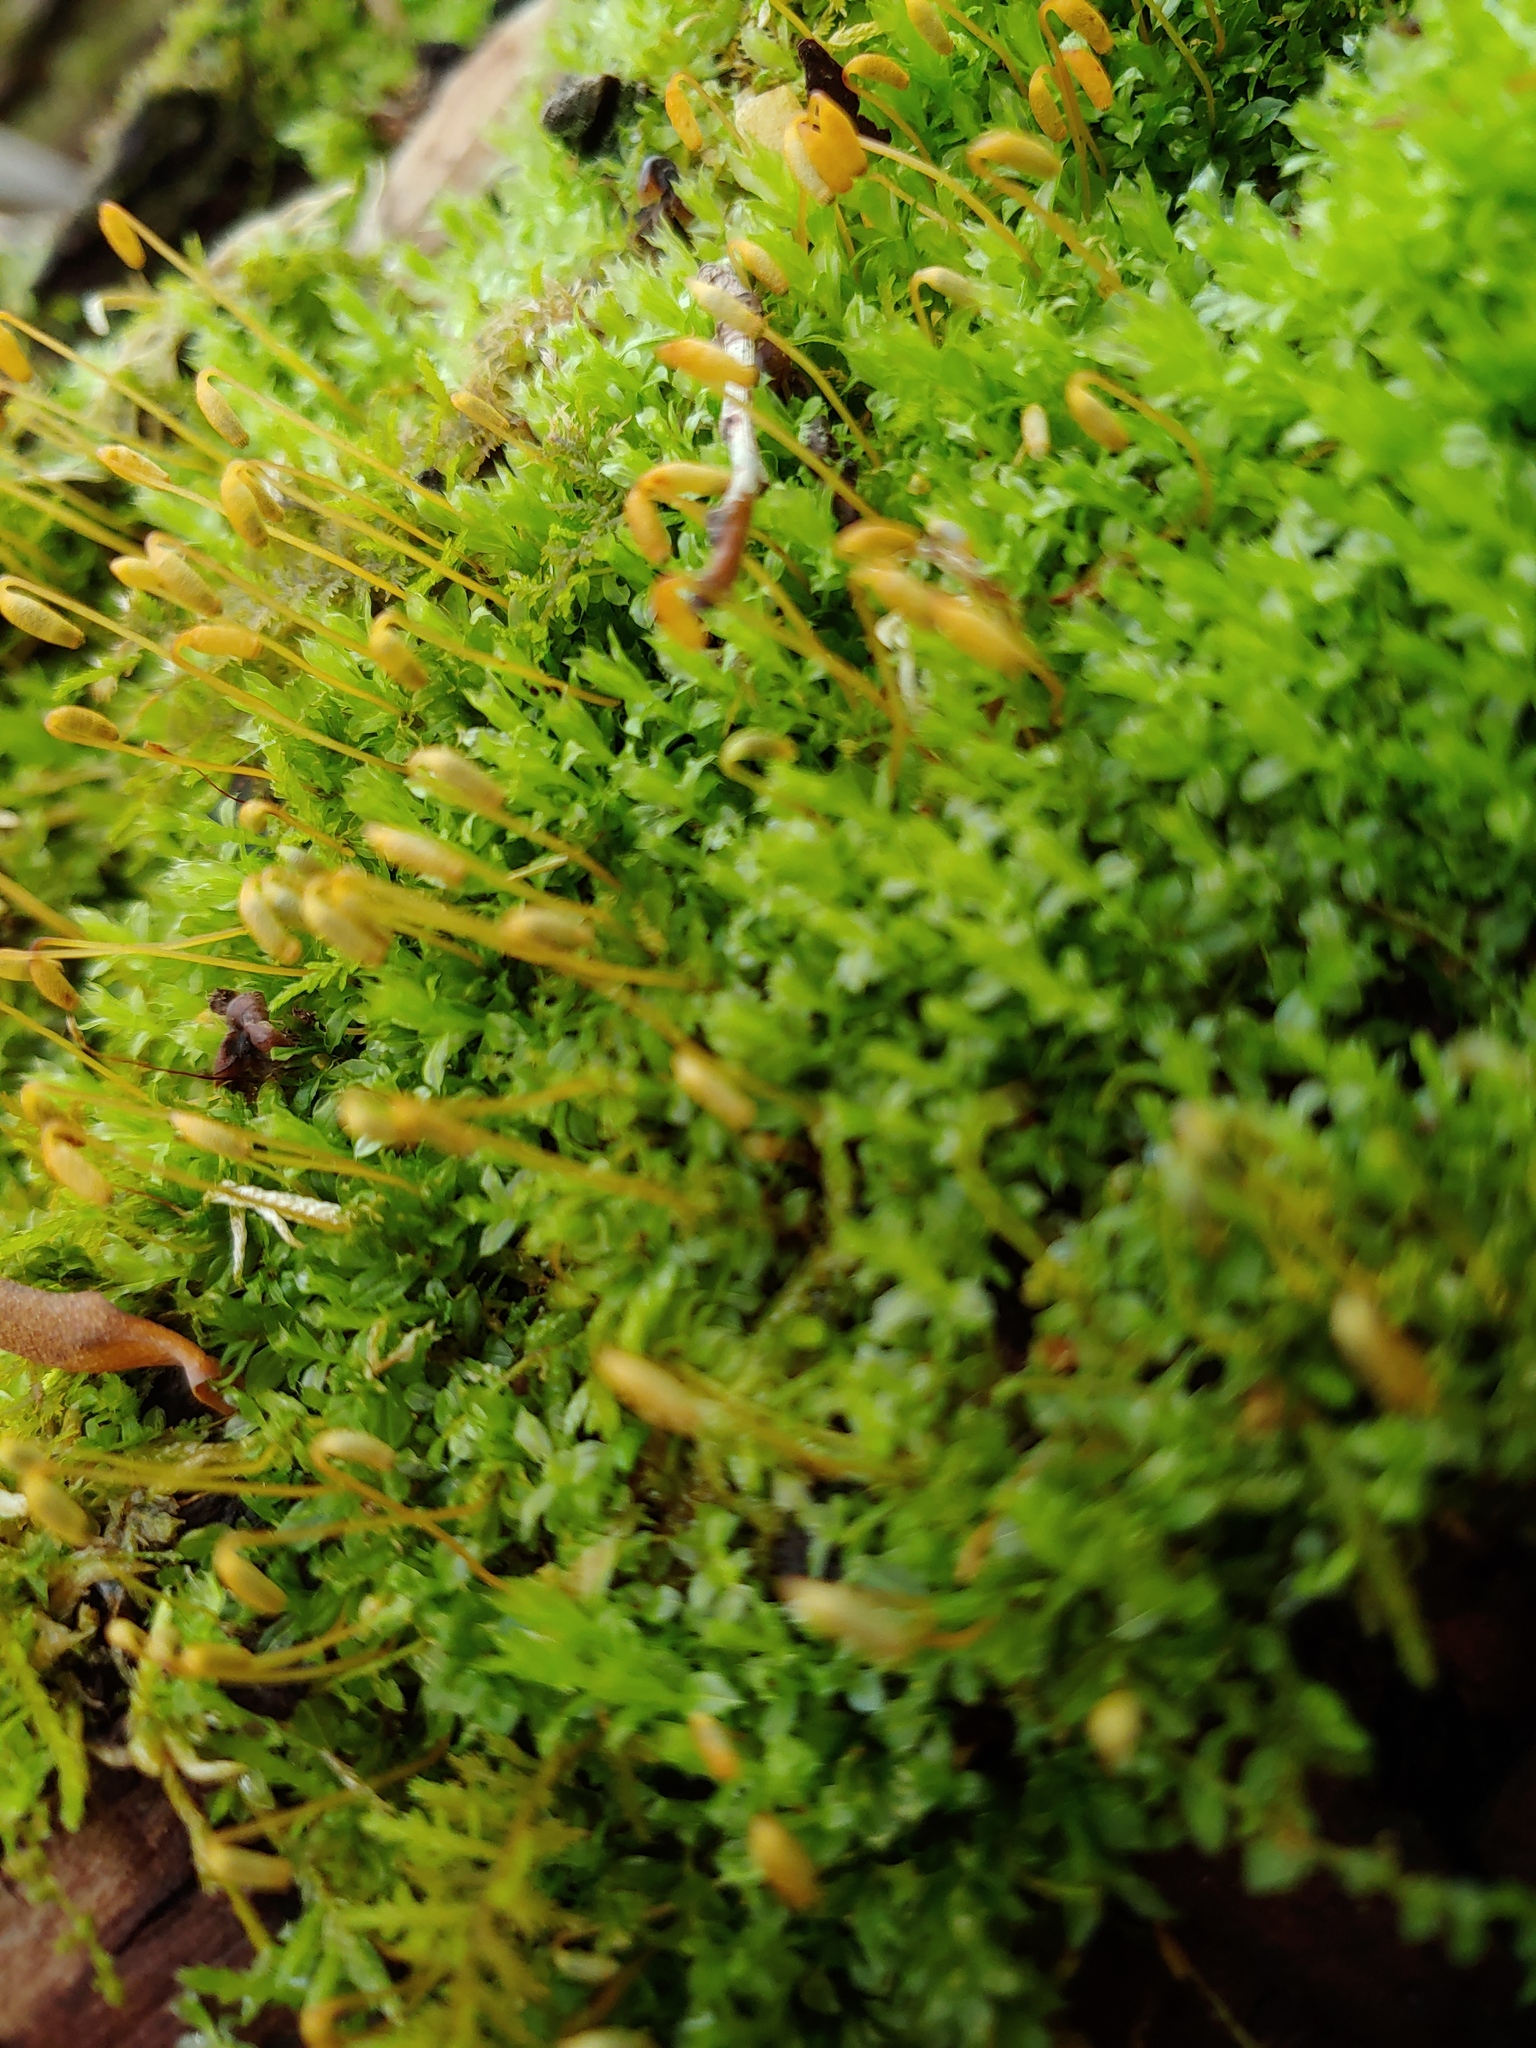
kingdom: Plantae
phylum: Bryophyta
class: Bryopsida
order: Bryales
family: Mniaceae
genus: Plagiomnium
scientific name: Plagiomnium cuspidatum
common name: Woodsy leafy moss
